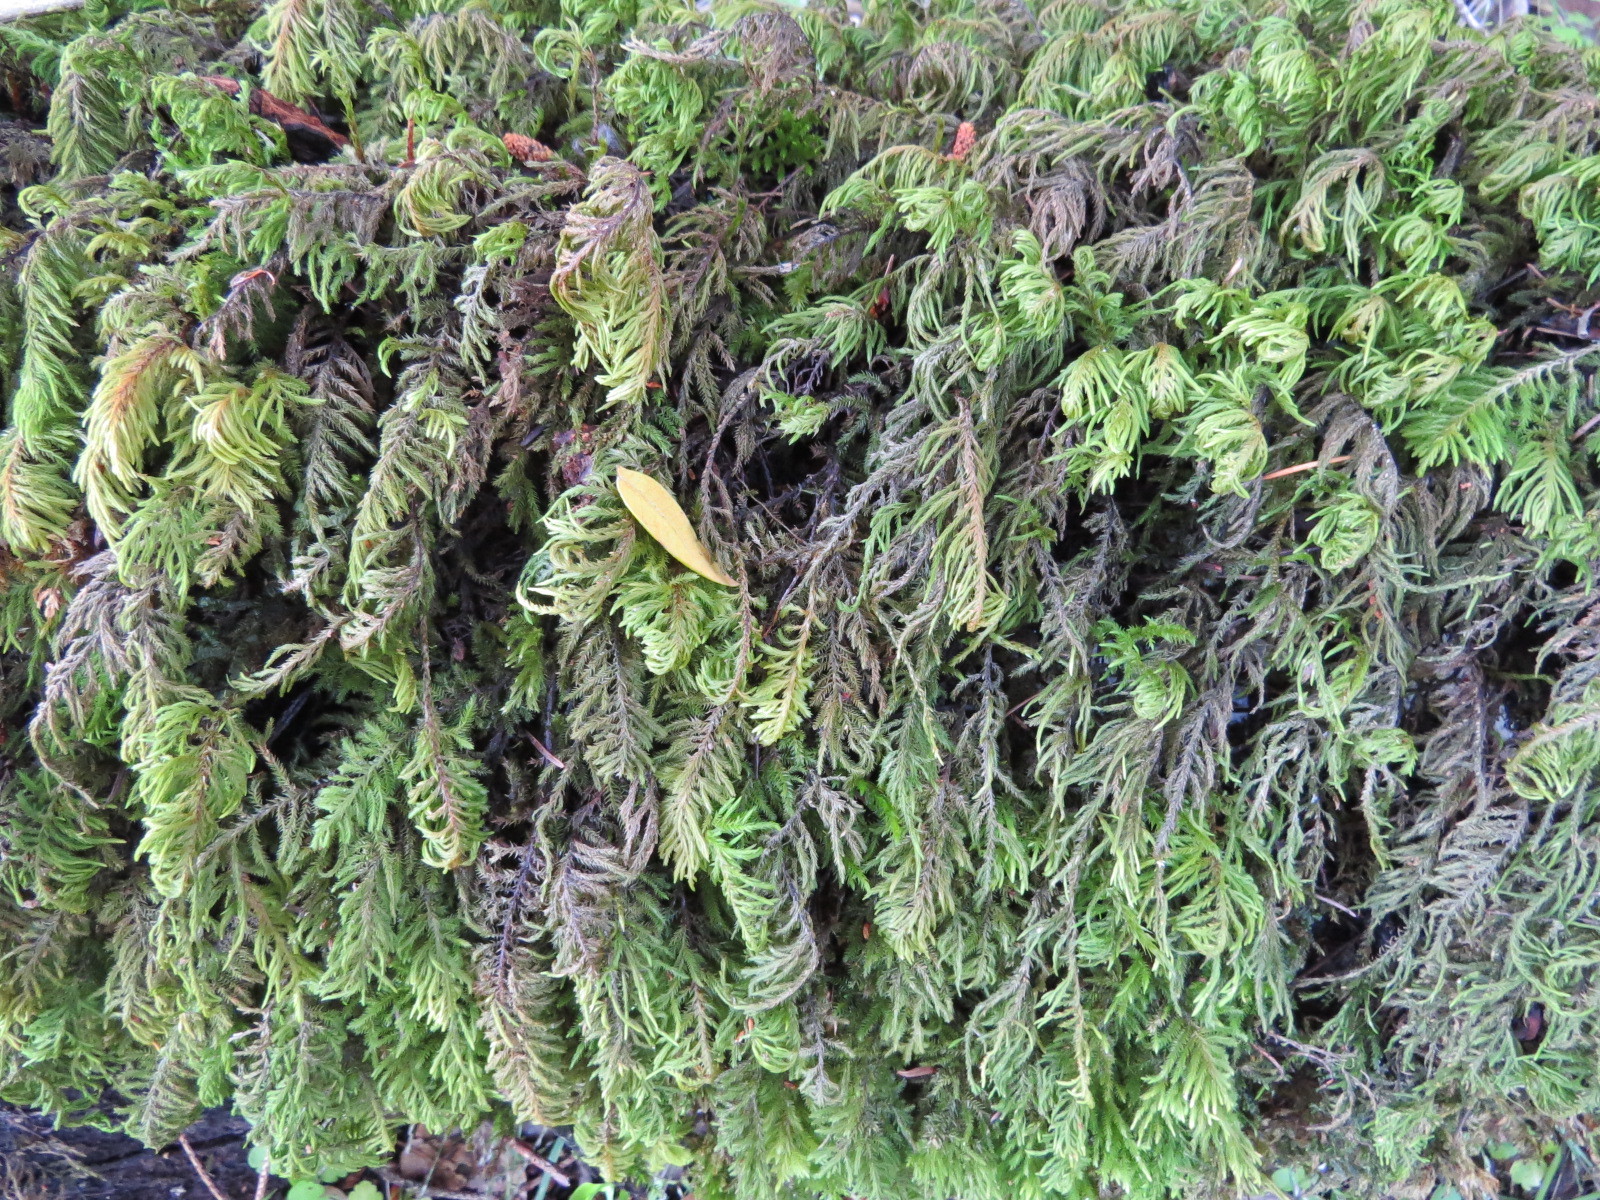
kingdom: Plantae
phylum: Bryophyta
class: Bryopsida
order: Hypnales
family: Cryphaeaceae
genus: Dendroalsia
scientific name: Dendroalsia abietina
